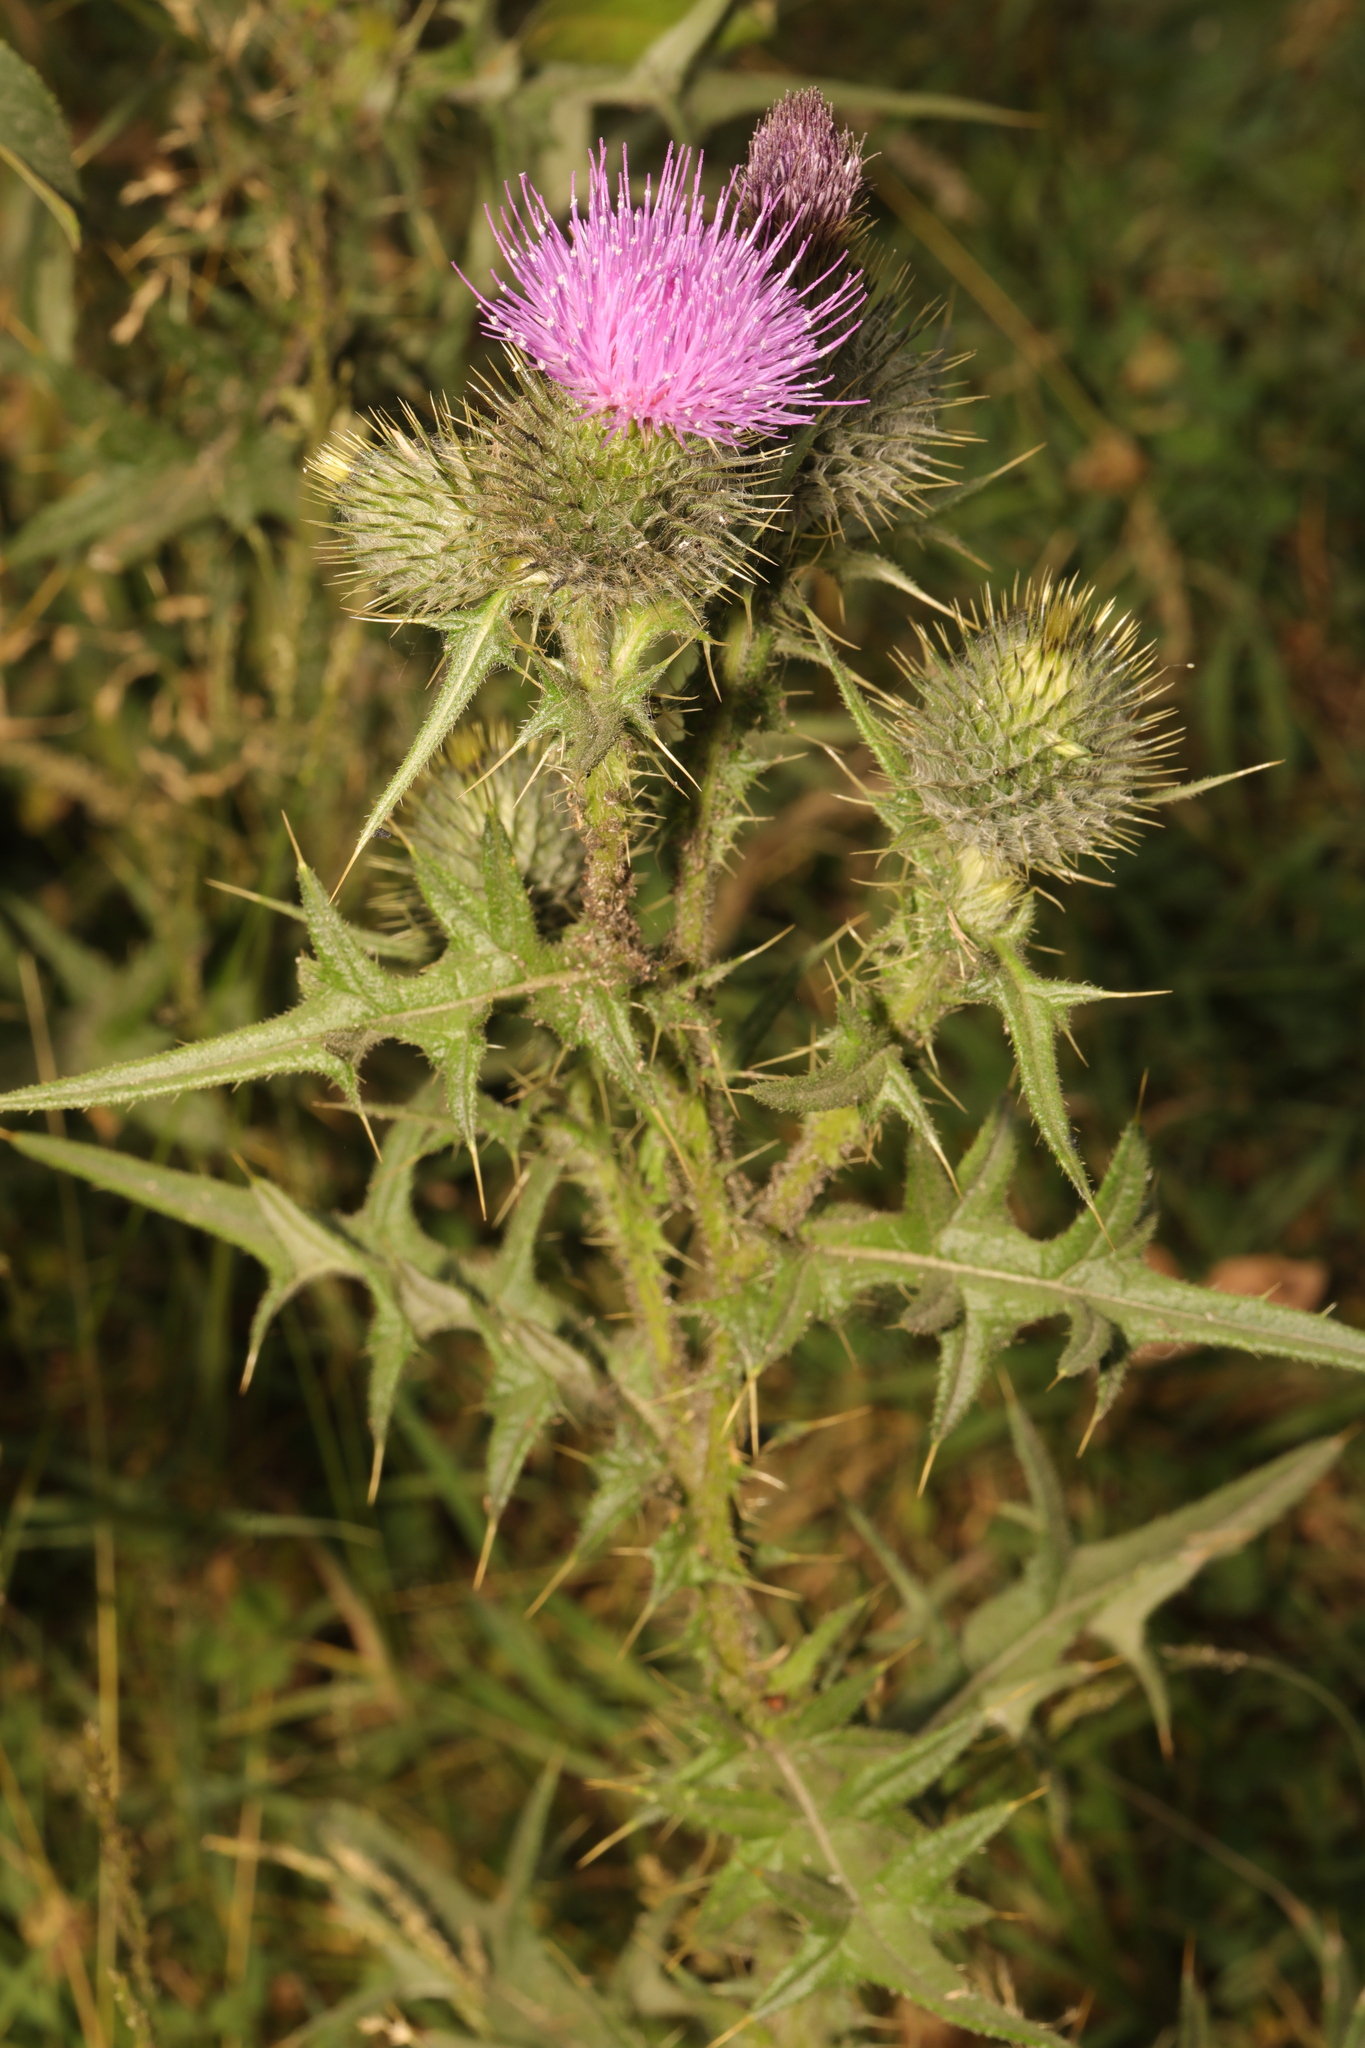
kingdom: Plantae
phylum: Tracheophyta
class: Magnoliopsida
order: Asterales
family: Asteraceae
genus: Cirsium
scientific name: Cirsium vulgare
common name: Bull thistle
